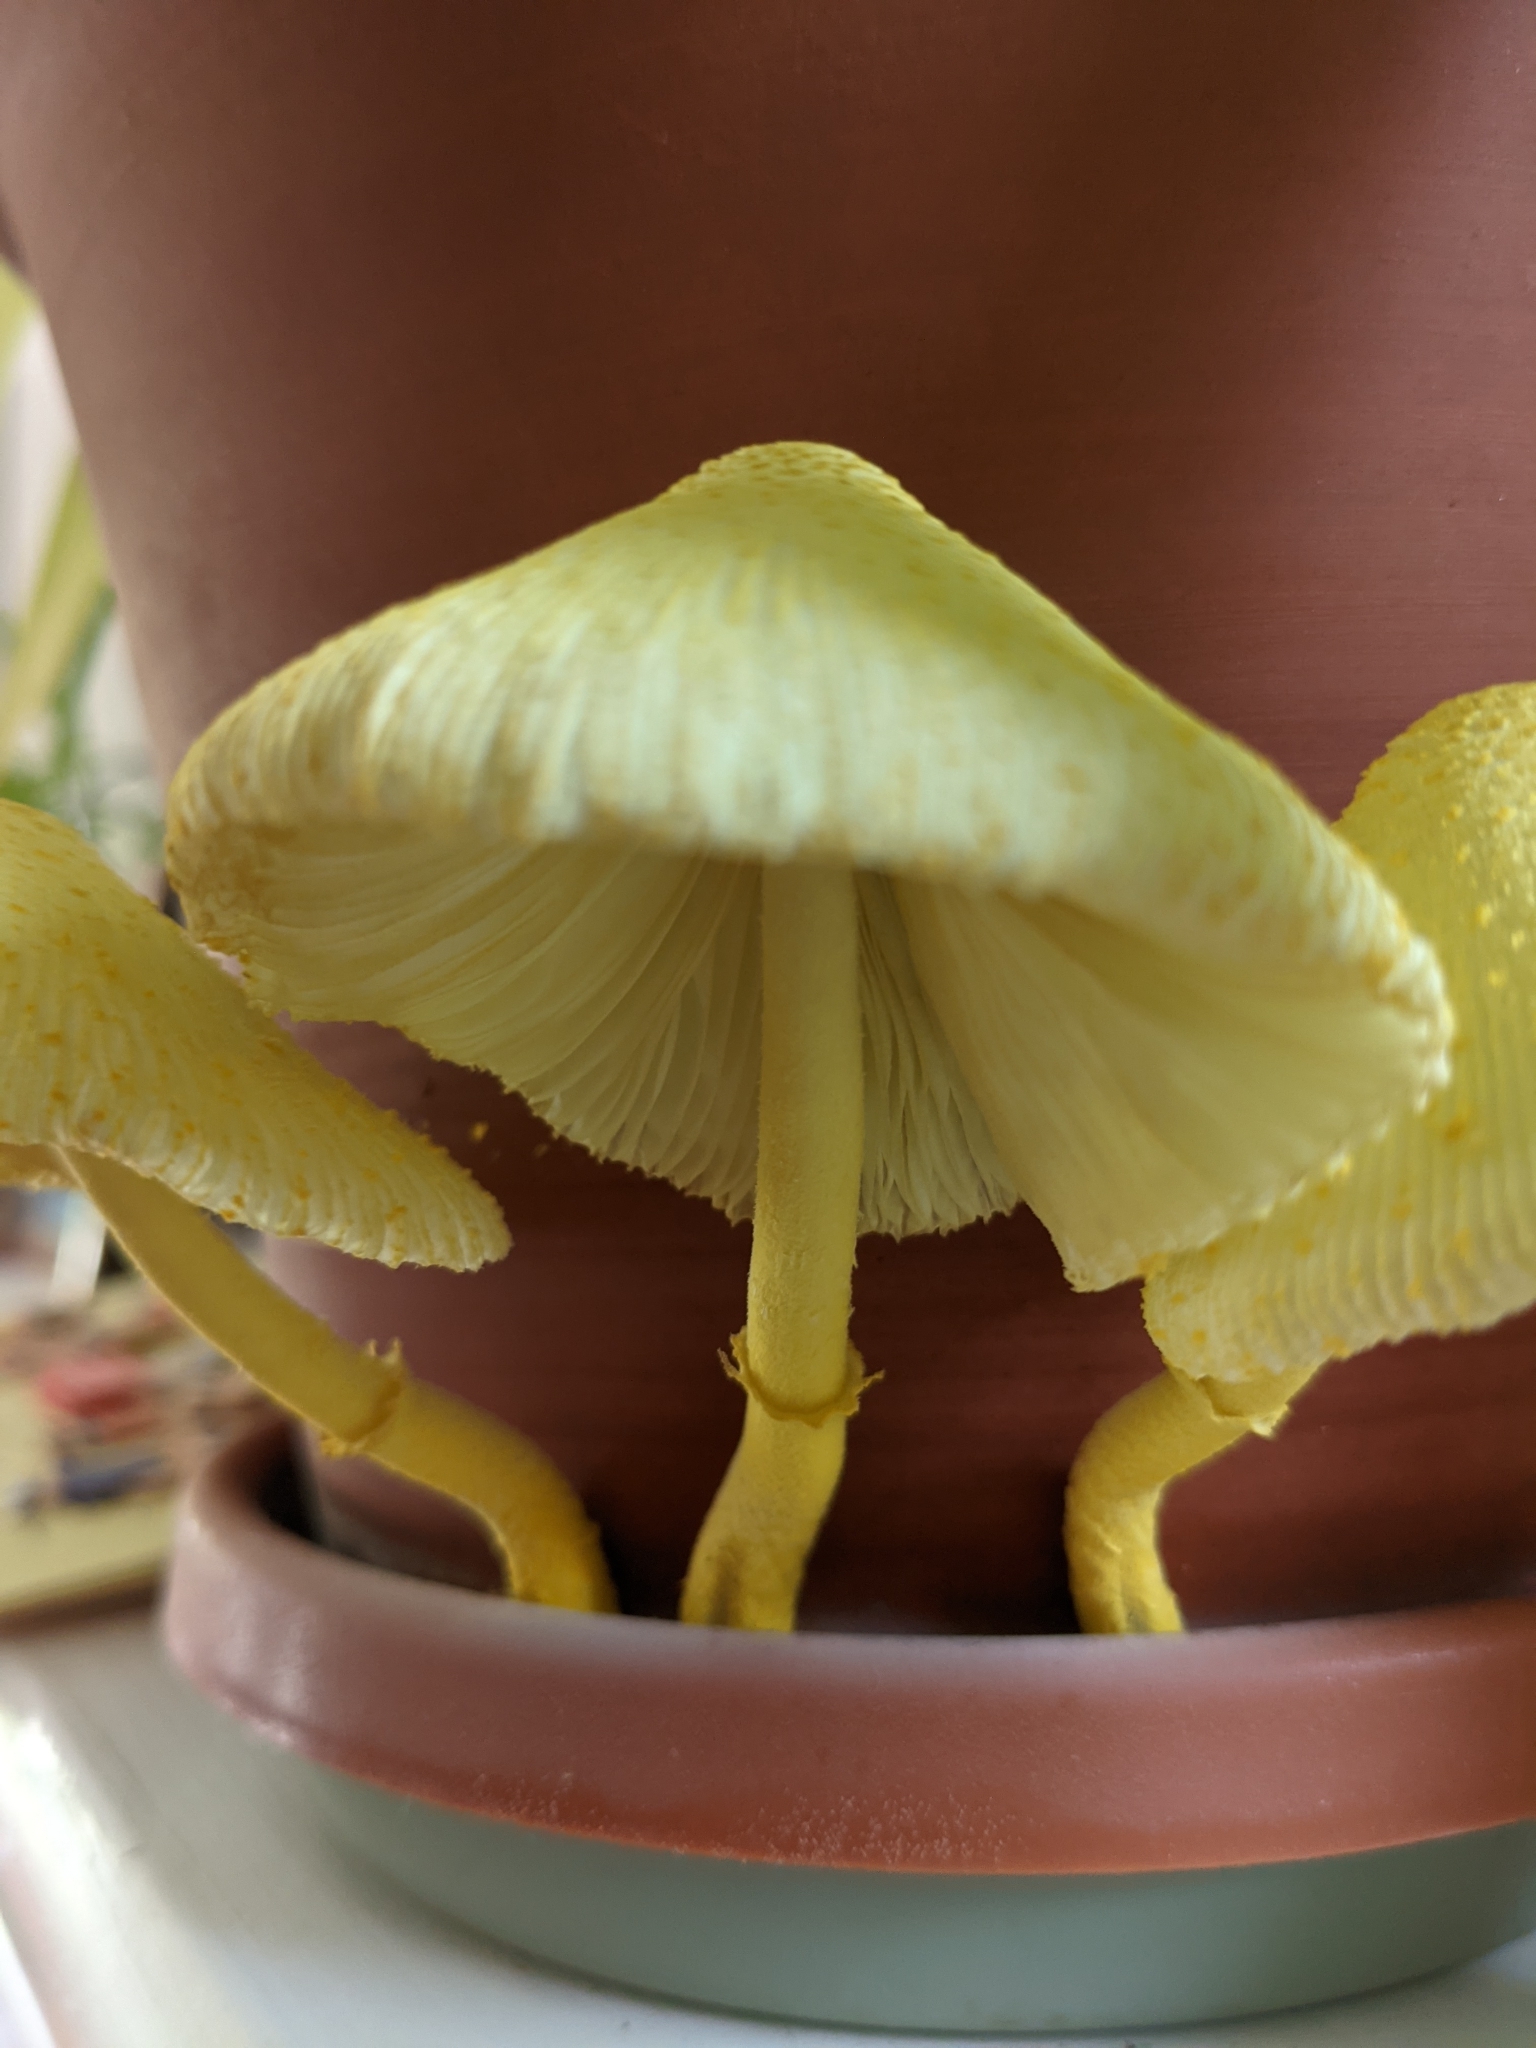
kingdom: Fungi
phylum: Basidiomycota
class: Agaricomycetes
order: Agaricales
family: Agaricaceae
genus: Leucocoprinus
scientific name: Leucocoprinus birnbaumii
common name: Plantpot dapperling
